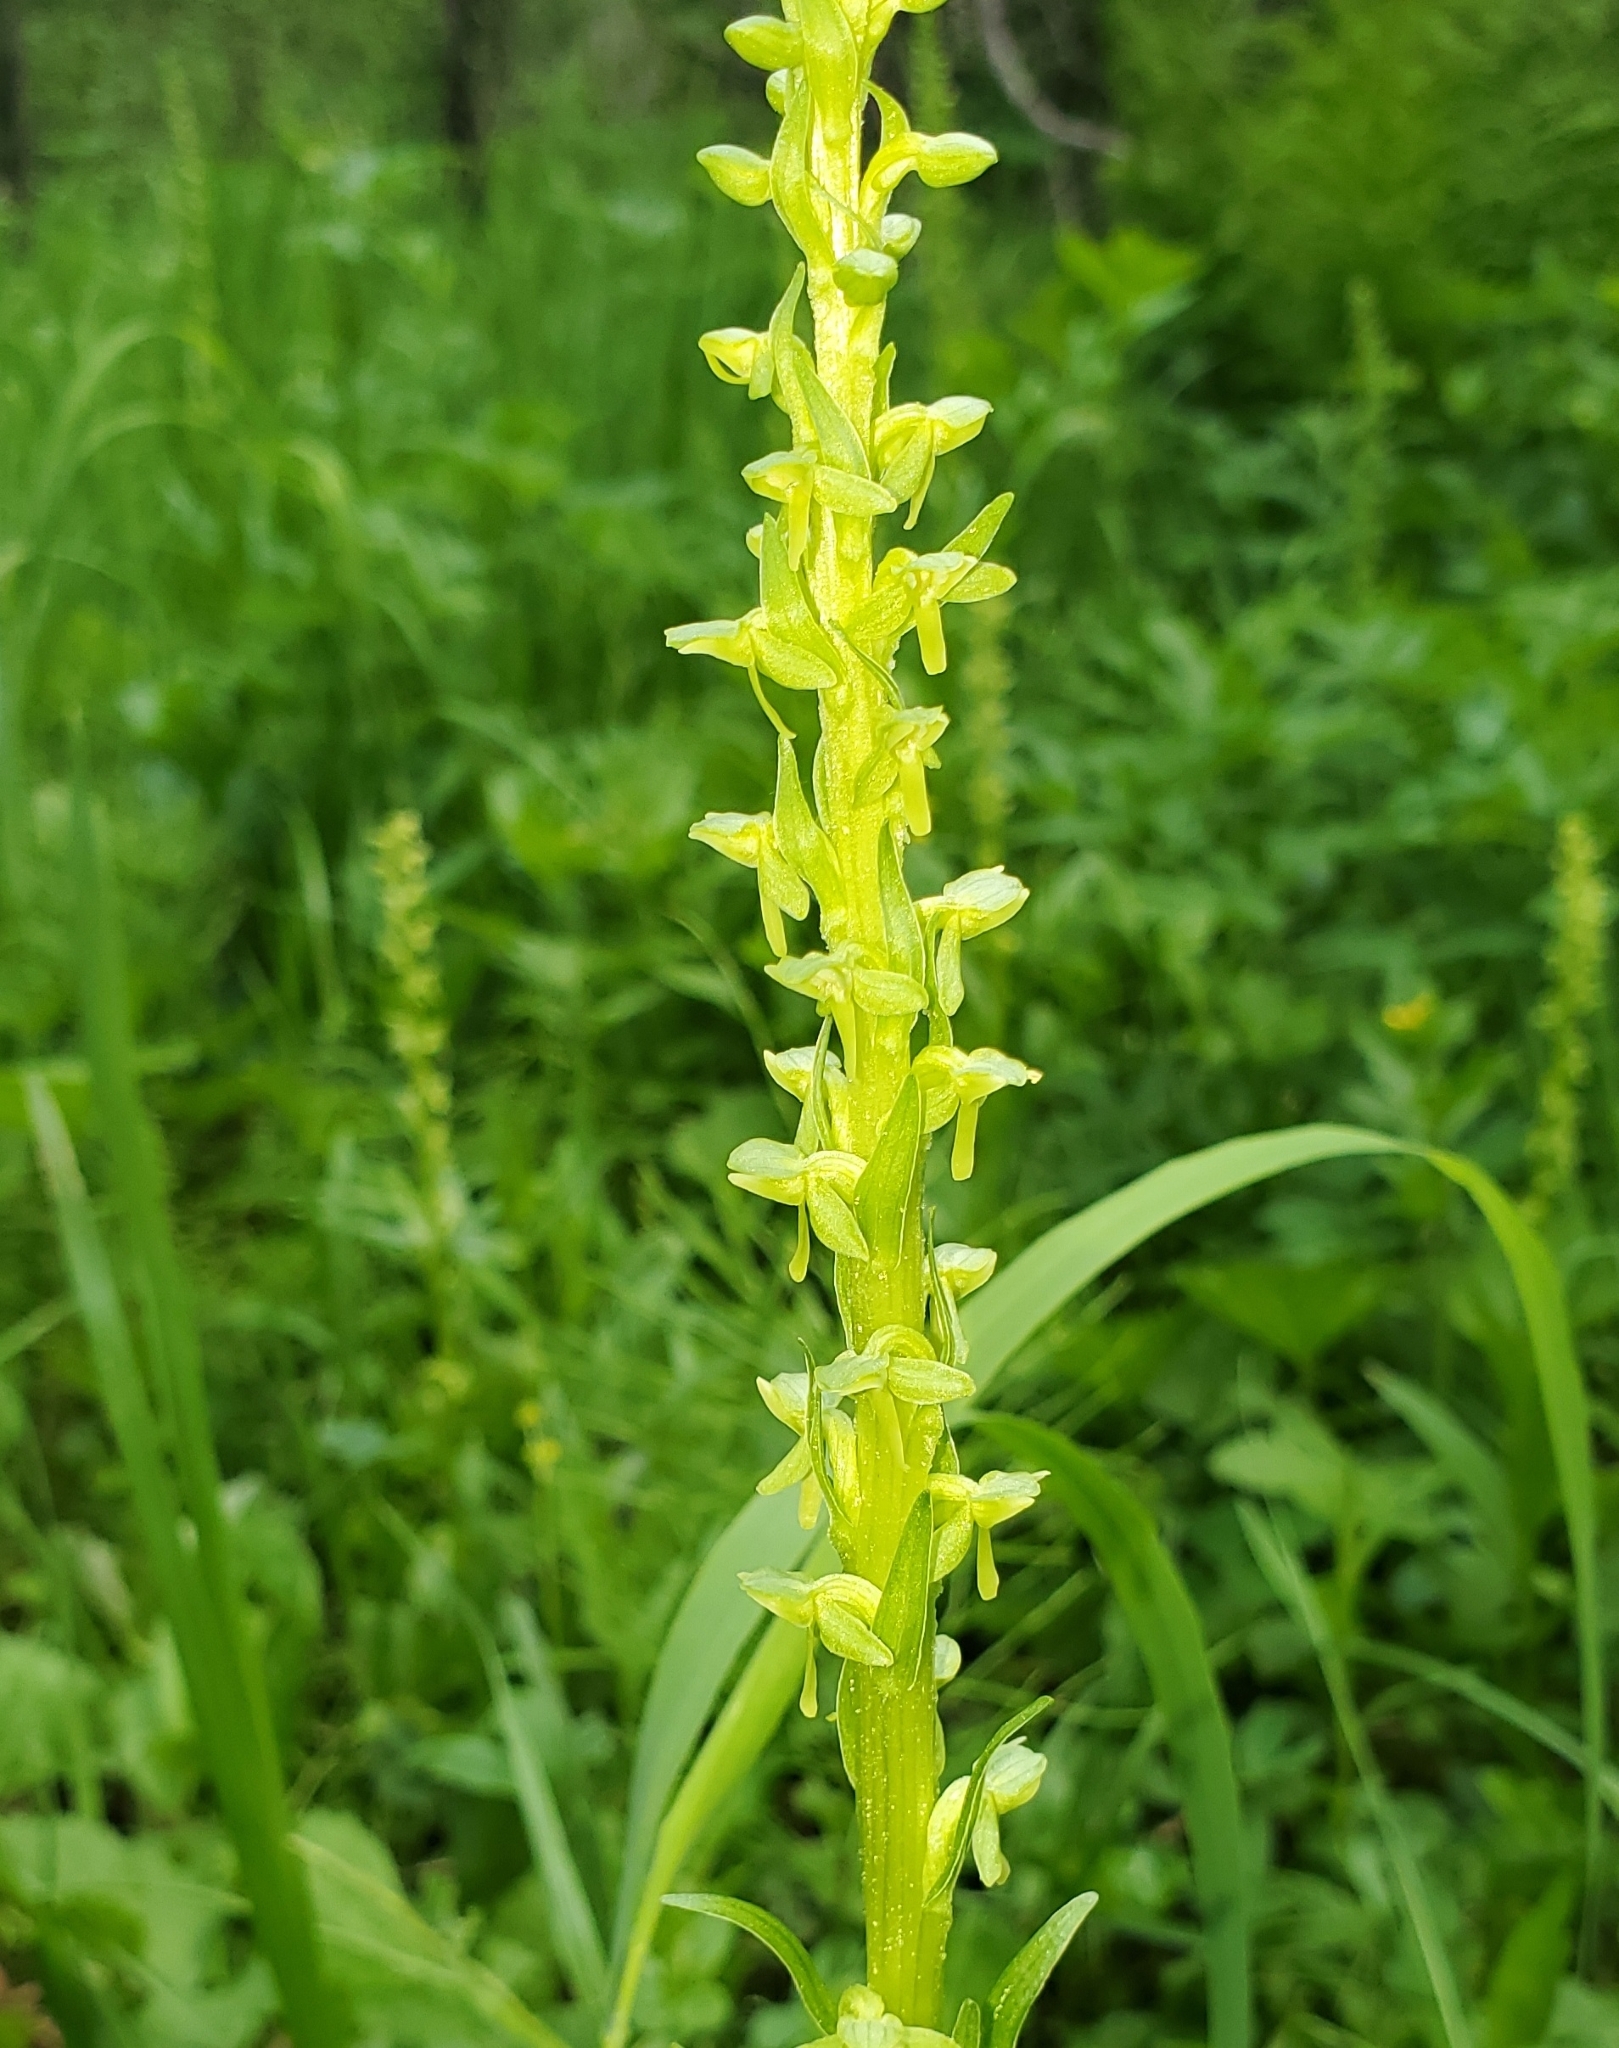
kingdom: Plantae
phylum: Tracheophyta
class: Liliopsida
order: Asparagales
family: Orchidaceae
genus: Platanthera
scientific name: Platanthera stricta
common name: Slender bog orchid
